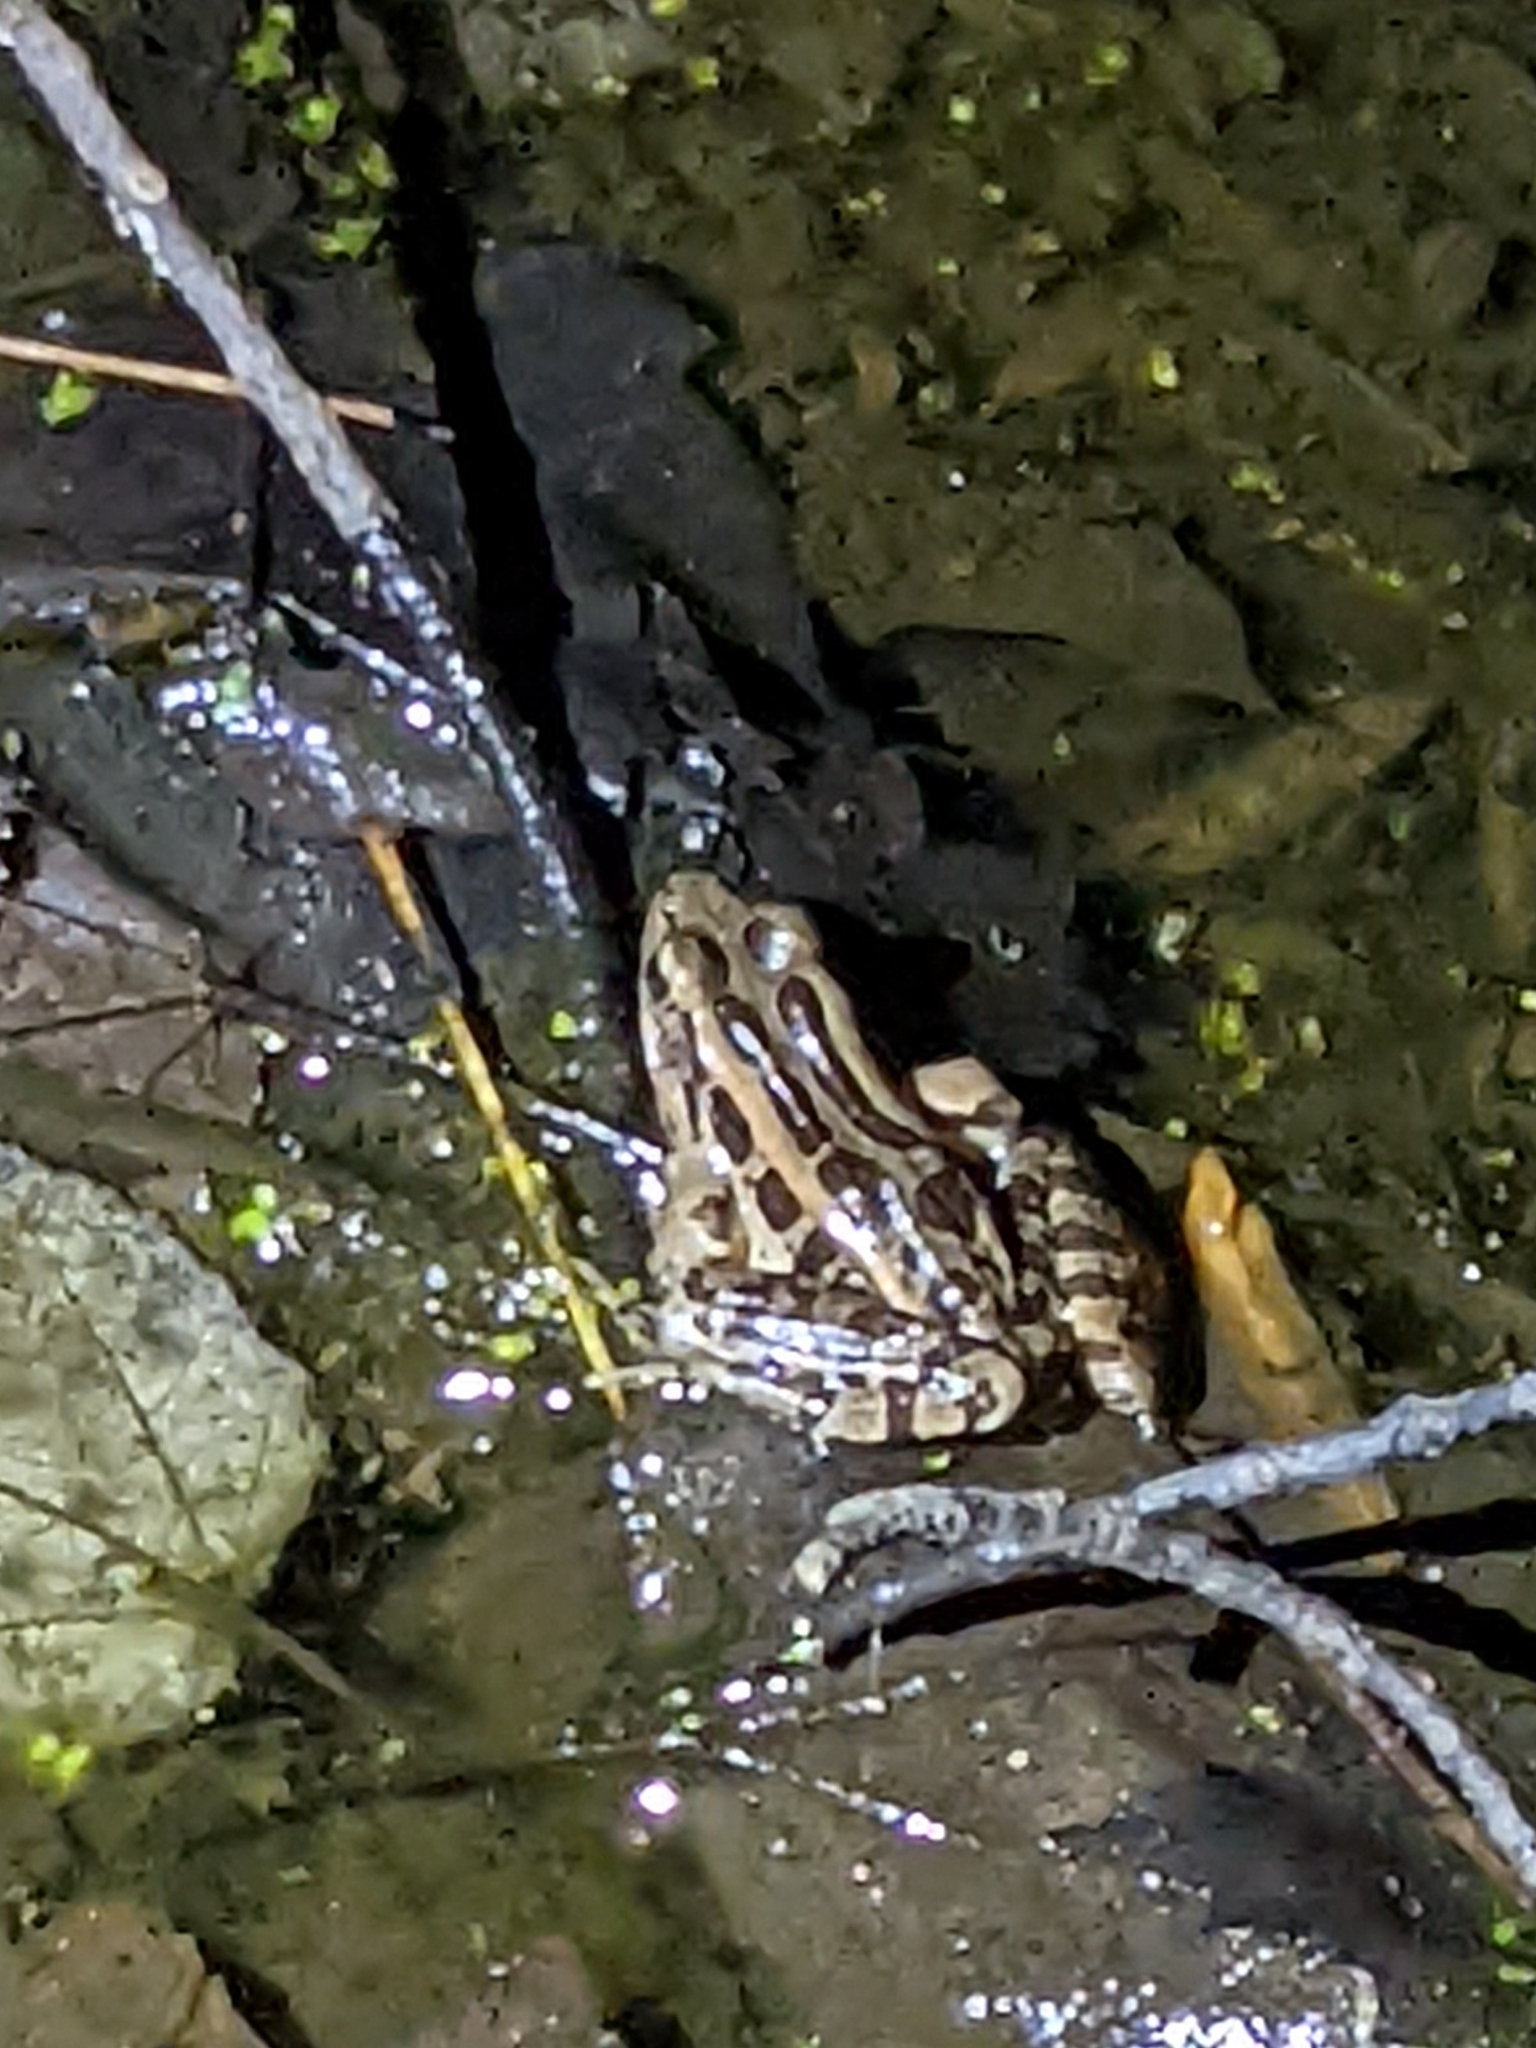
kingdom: Animalia
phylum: Chordata
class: Amphibia
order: Anura
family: Ranidae
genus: Lithobates
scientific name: Lithobates palustris
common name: Pickerel frog
